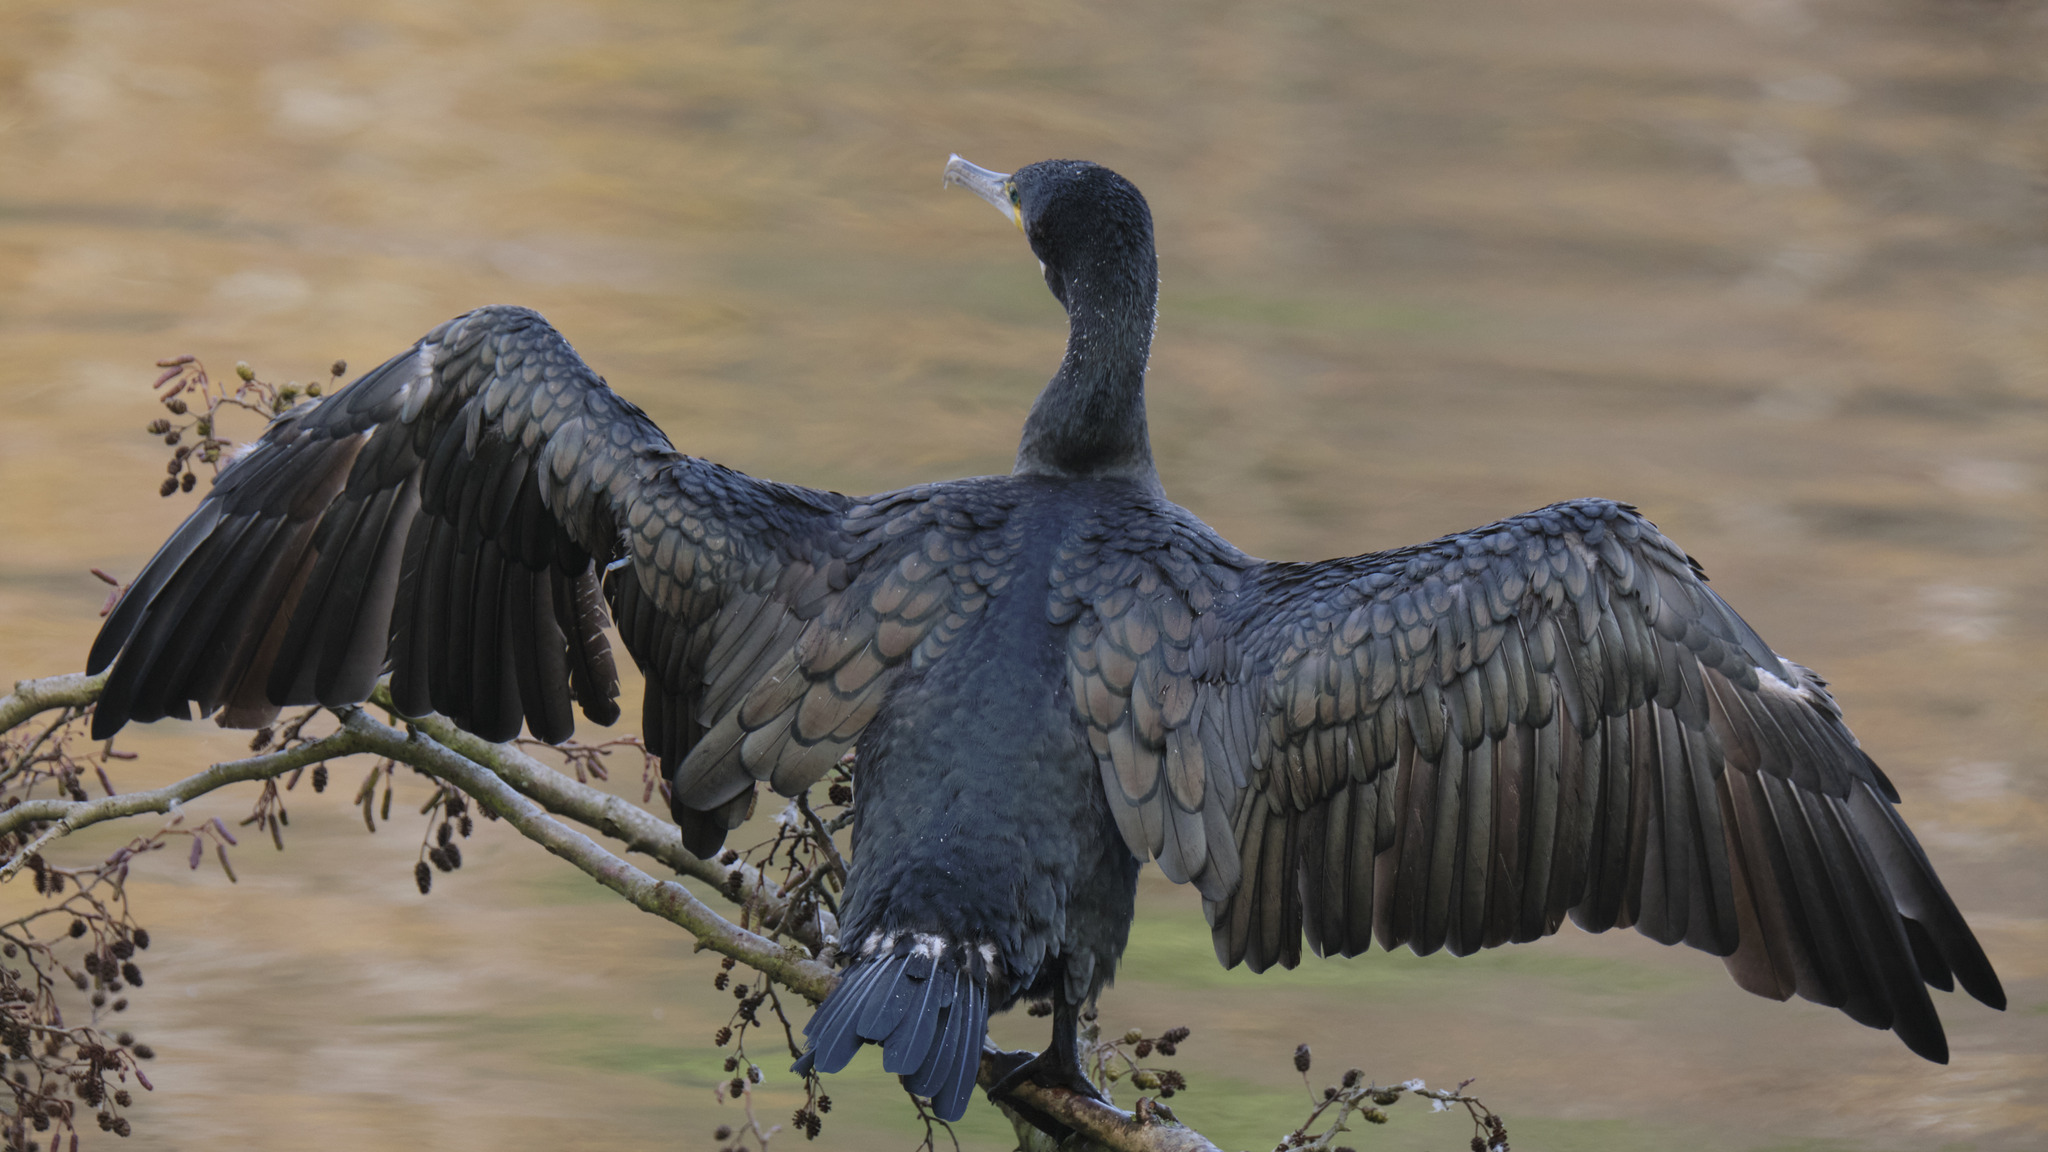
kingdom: Animalia
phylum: Chordata
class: Aves
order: Suliformes
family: Phalacrocoracidae
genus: Phalacrocorax
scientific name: Phalacrocorax carbo
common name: Great cormorant
